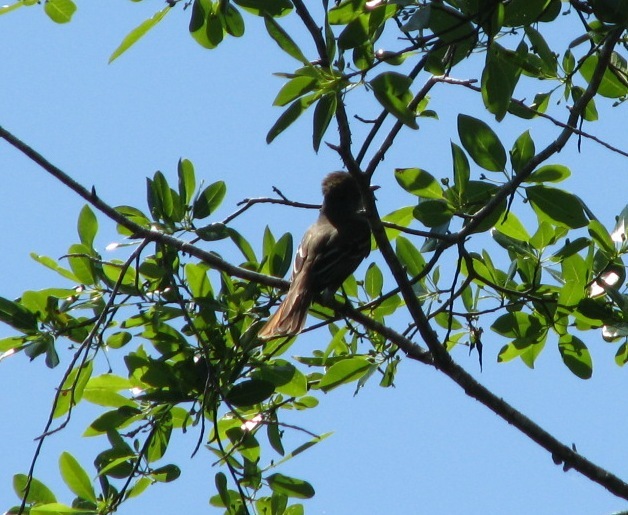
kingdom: Animalia
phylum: Chordata
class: Aves
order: Passeriformes
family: Tyrannidae
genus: Myiarchus
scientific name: Myiarchus crinitus
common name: Great crested flycatcher
